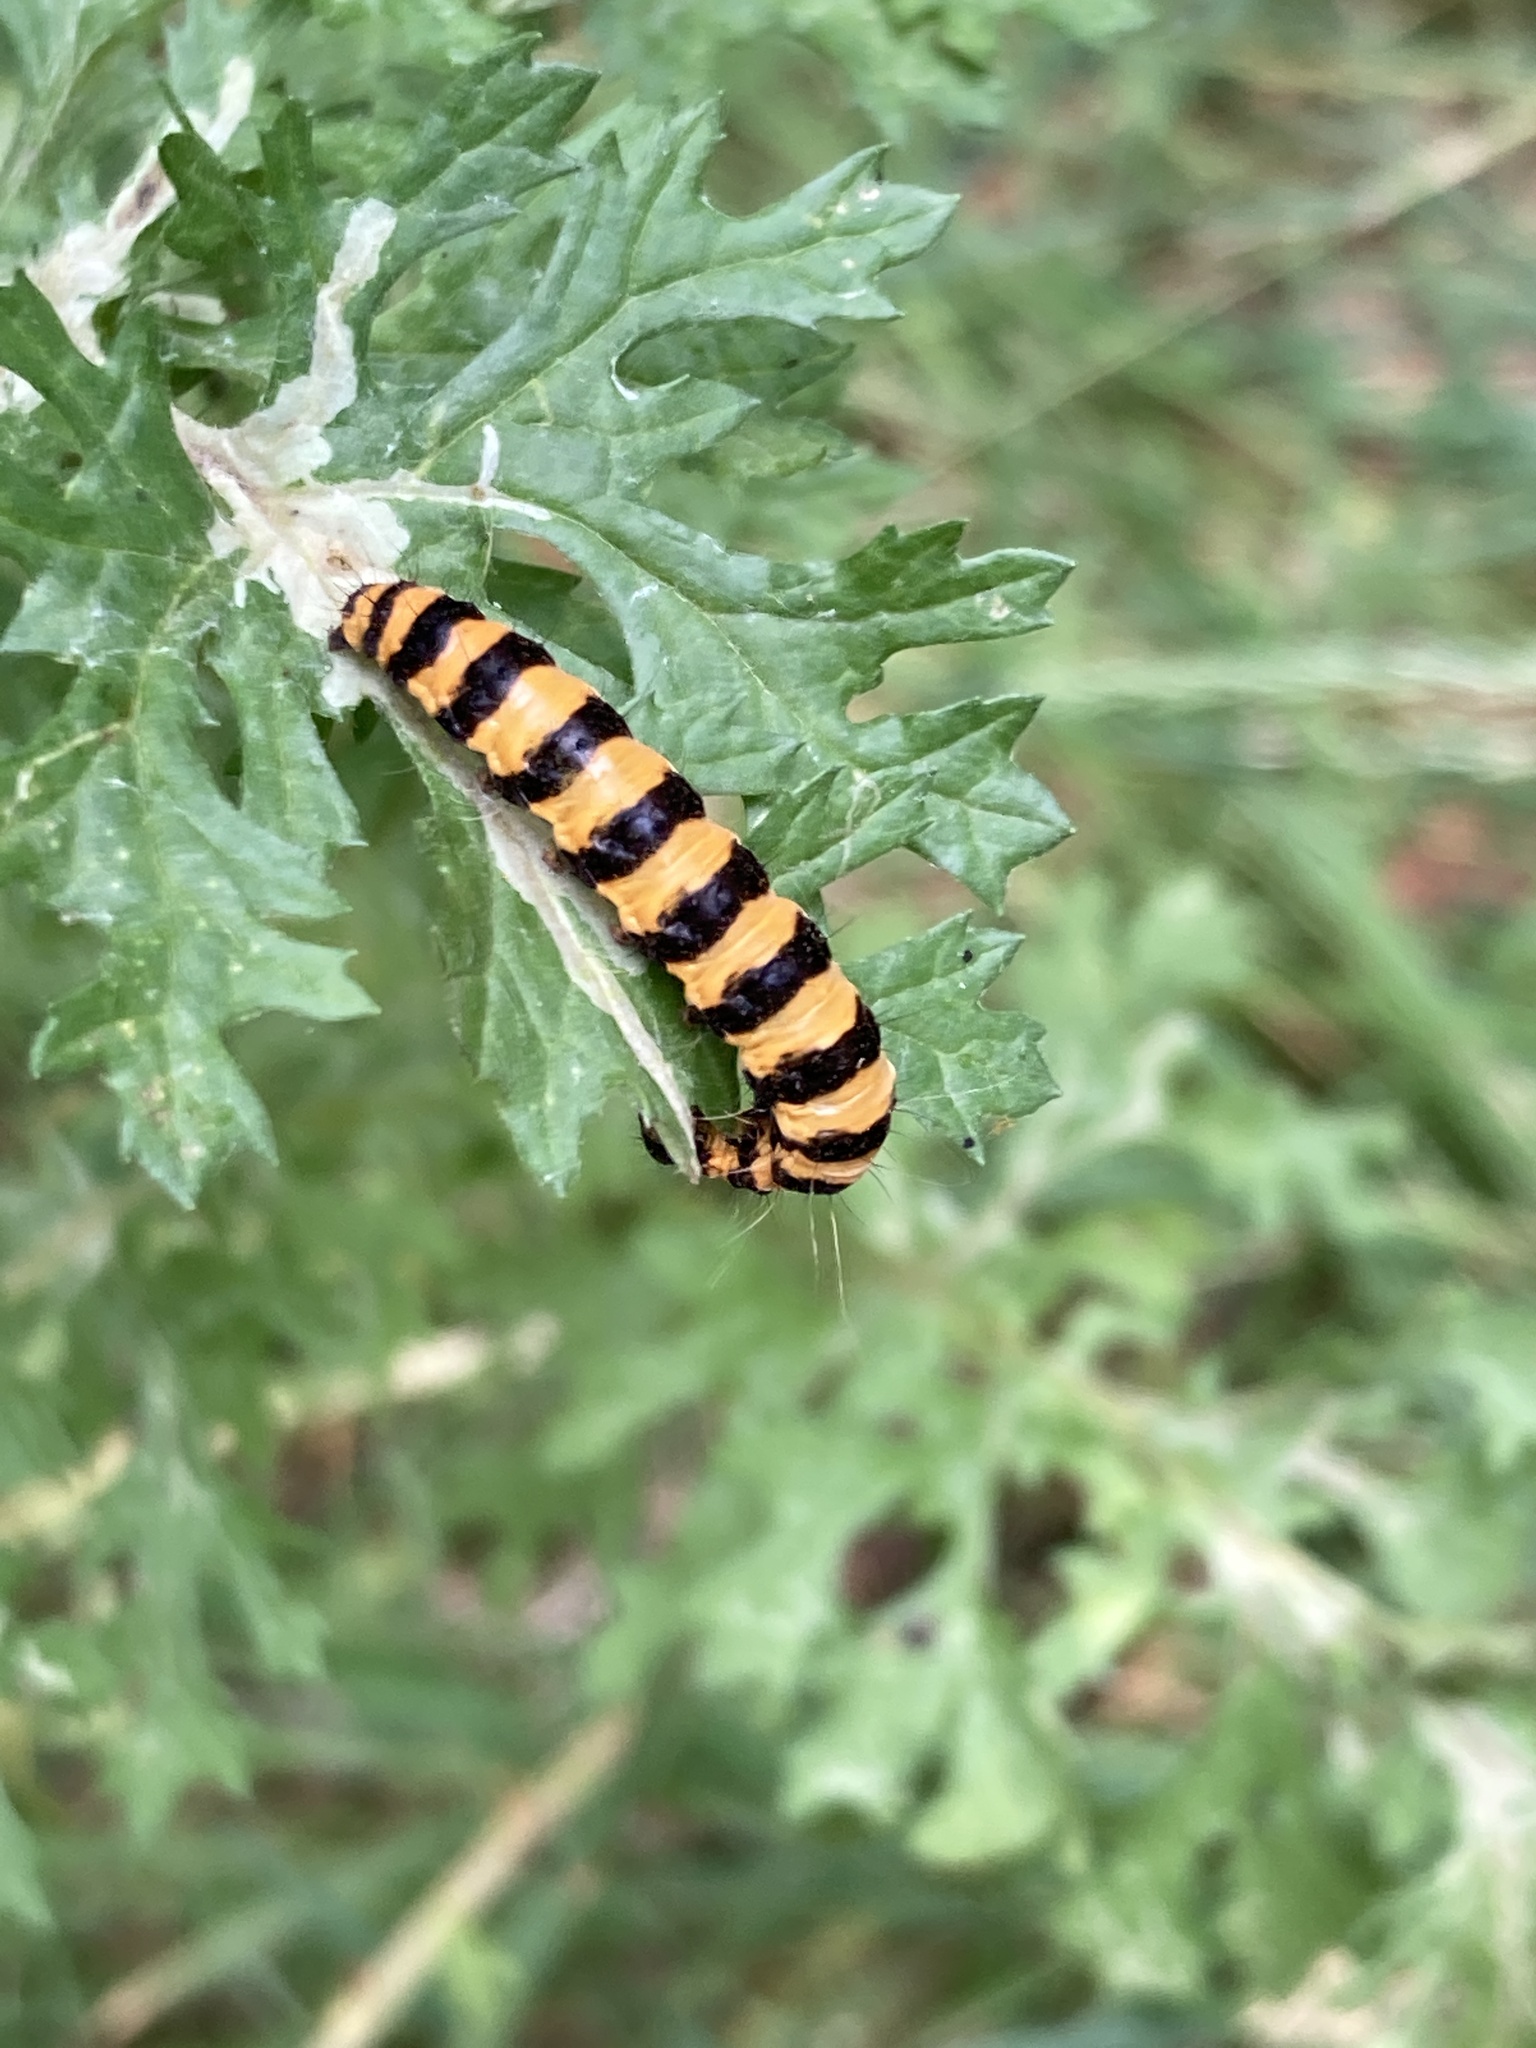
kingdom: Animalia
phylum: Arthropoda
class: Insecta
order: Lepidoptera
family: Erebidae
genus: Tyria
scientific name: Tyria jacobaeae
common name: Cinnabar
